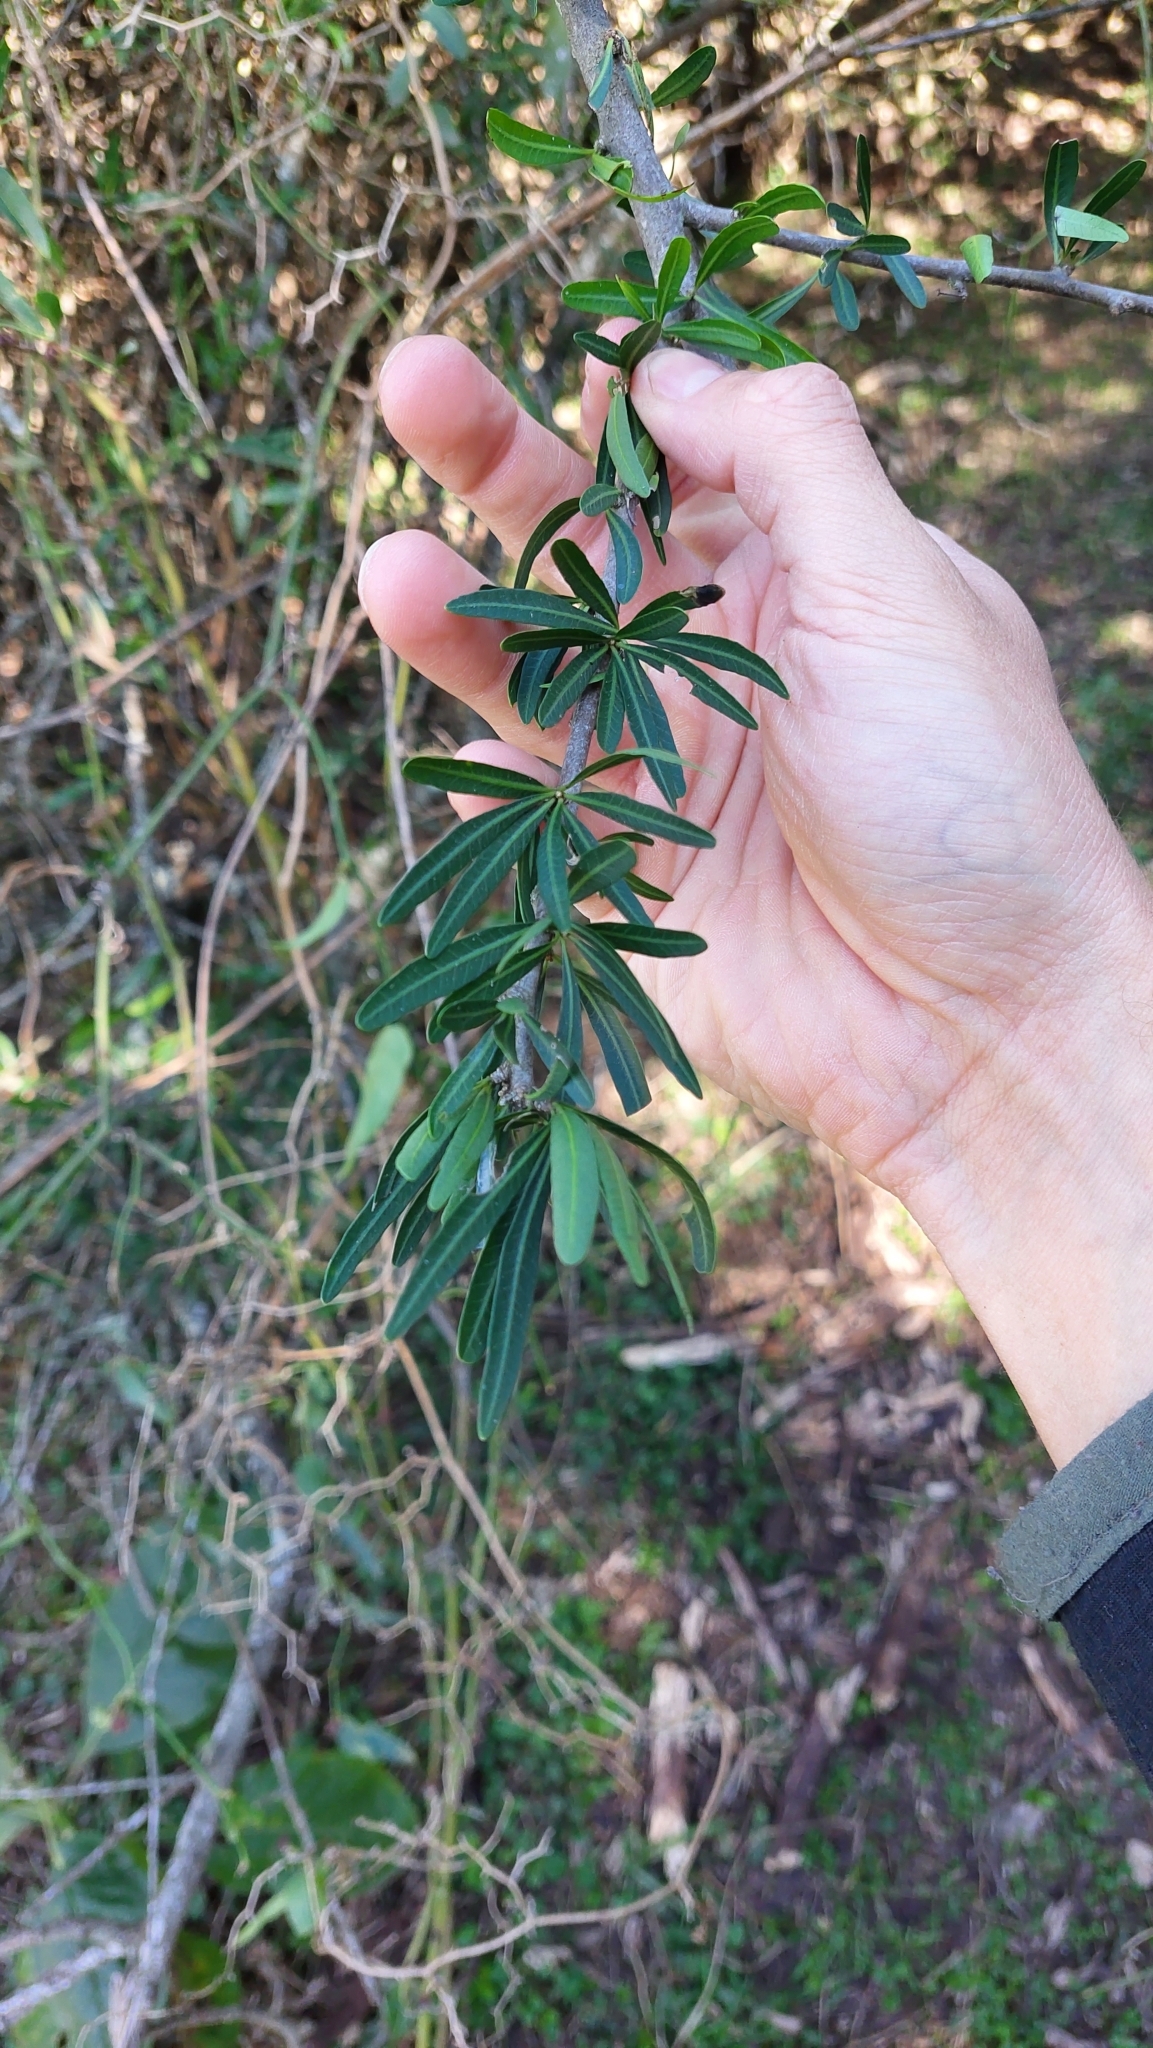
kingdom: Plantae
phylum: Tracheophyta
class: Magnoliopsida
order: Sapindales
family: Anacardiaceae
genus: Schinus
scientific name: Schinus longifolia
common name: Longleaf peppertree
